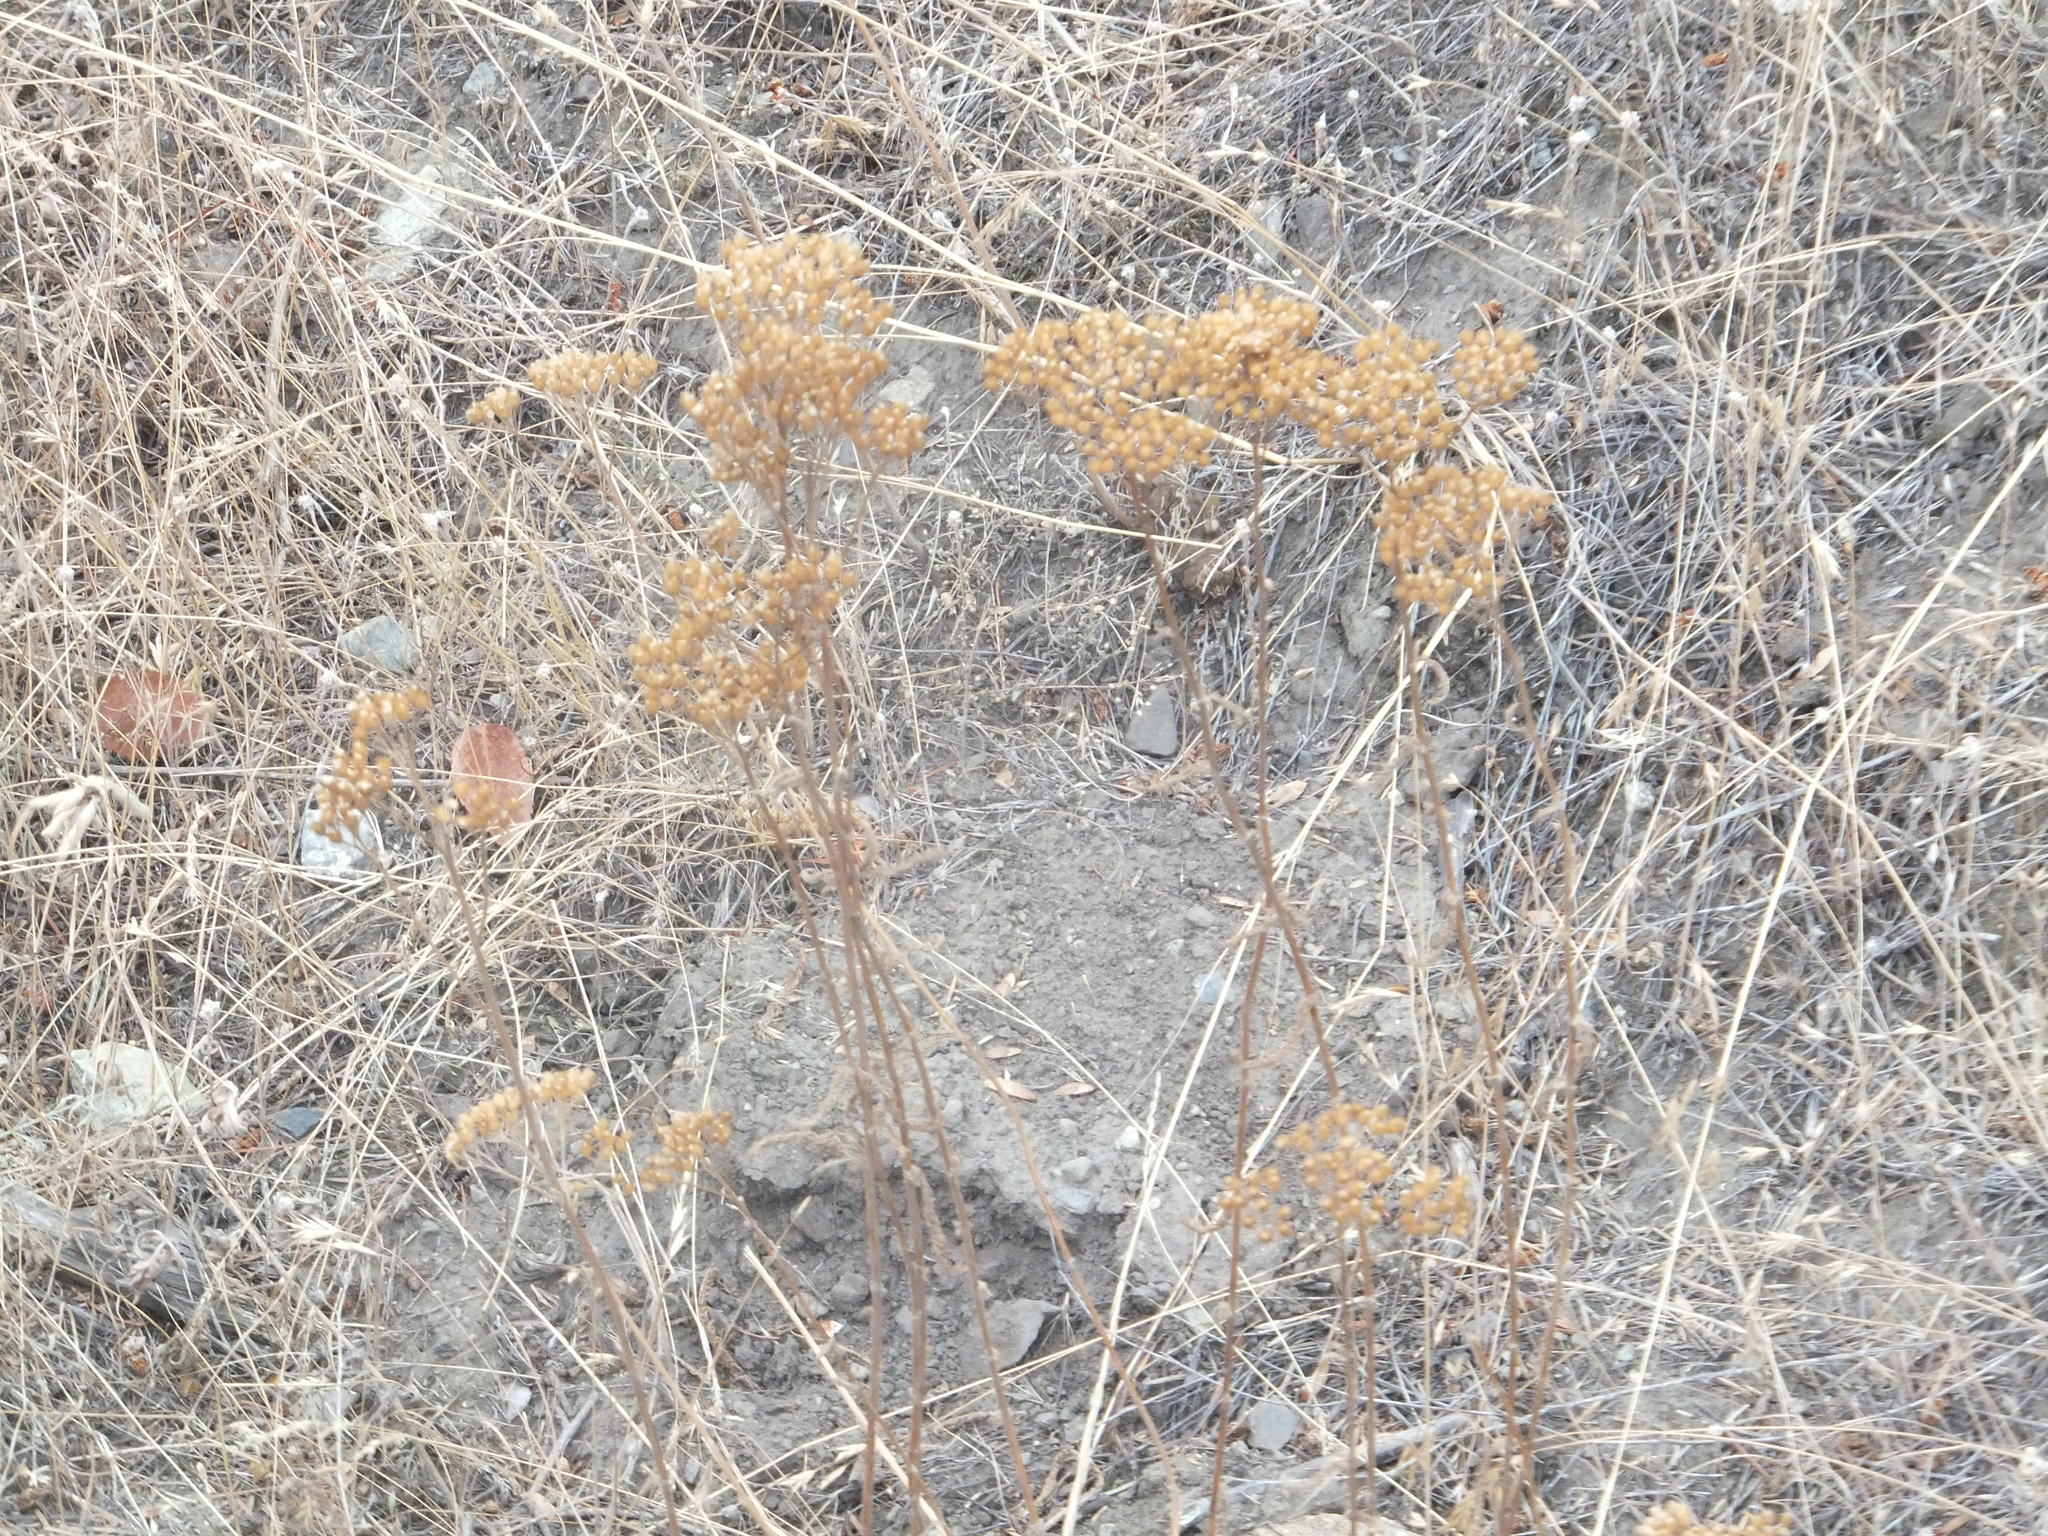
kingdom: Plantae
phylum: Tracheophyta
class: Magnoliopsida
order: Asterales
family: Asteraceae
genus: Achillea
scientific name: Achillea millefolium
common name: Yarrow
